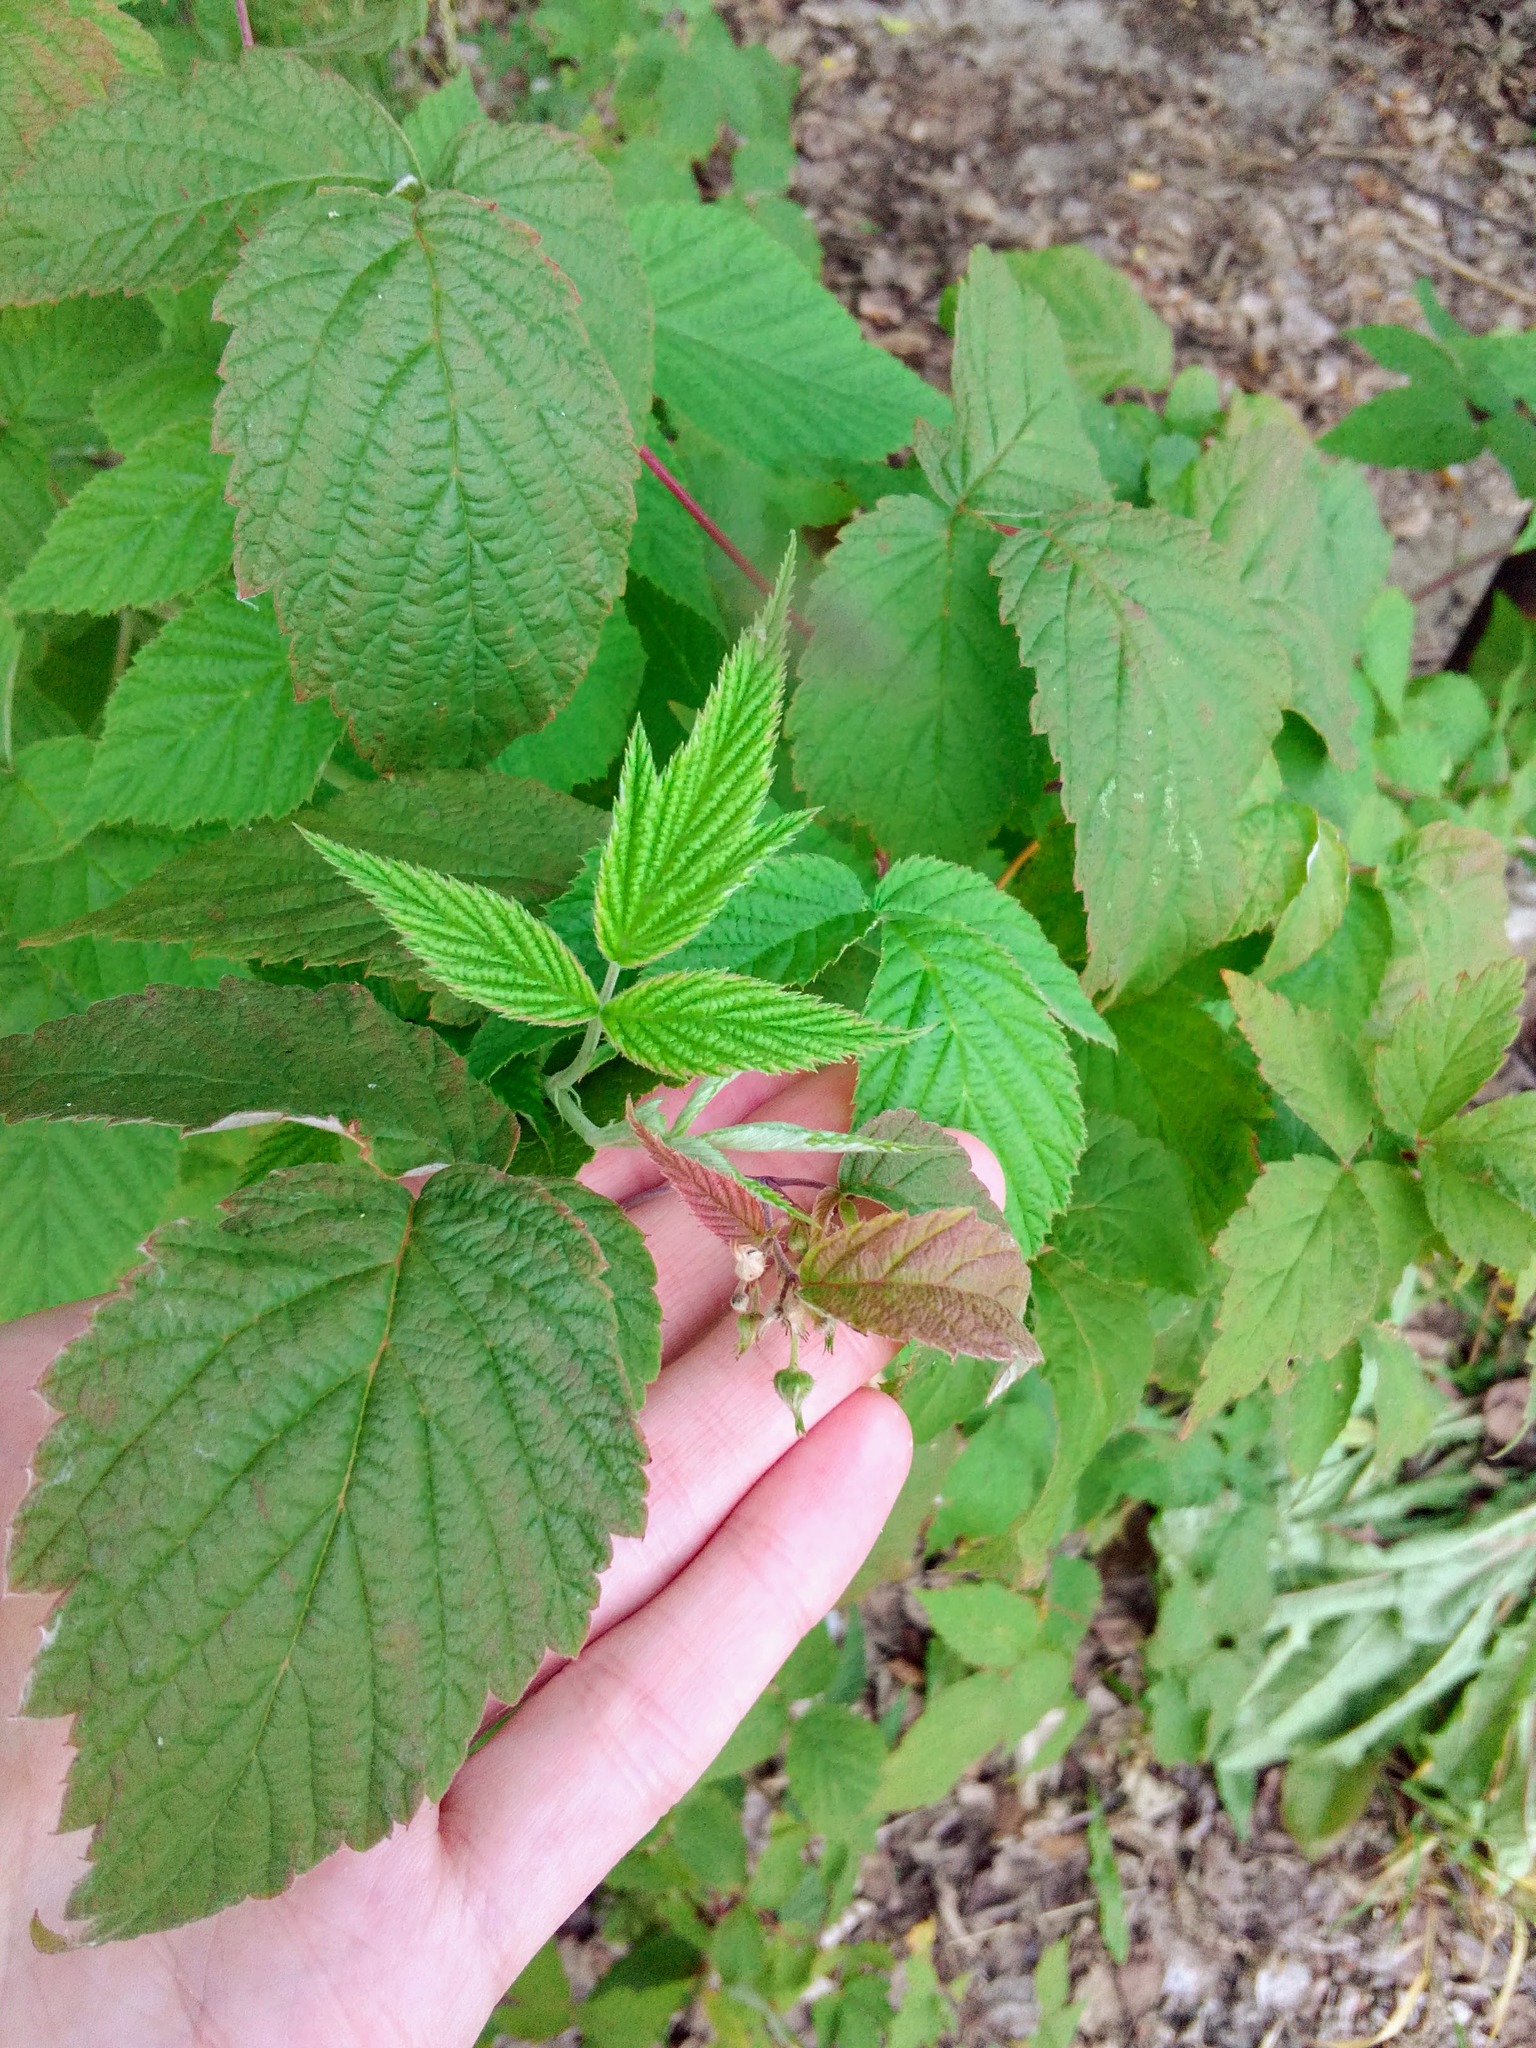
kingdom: Plantae
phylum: Tracheophyta
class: Magnoliopsida
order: Rosales
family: Rosaceae
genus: Rubus
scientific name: Rubus idaeus
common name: Raspberry
